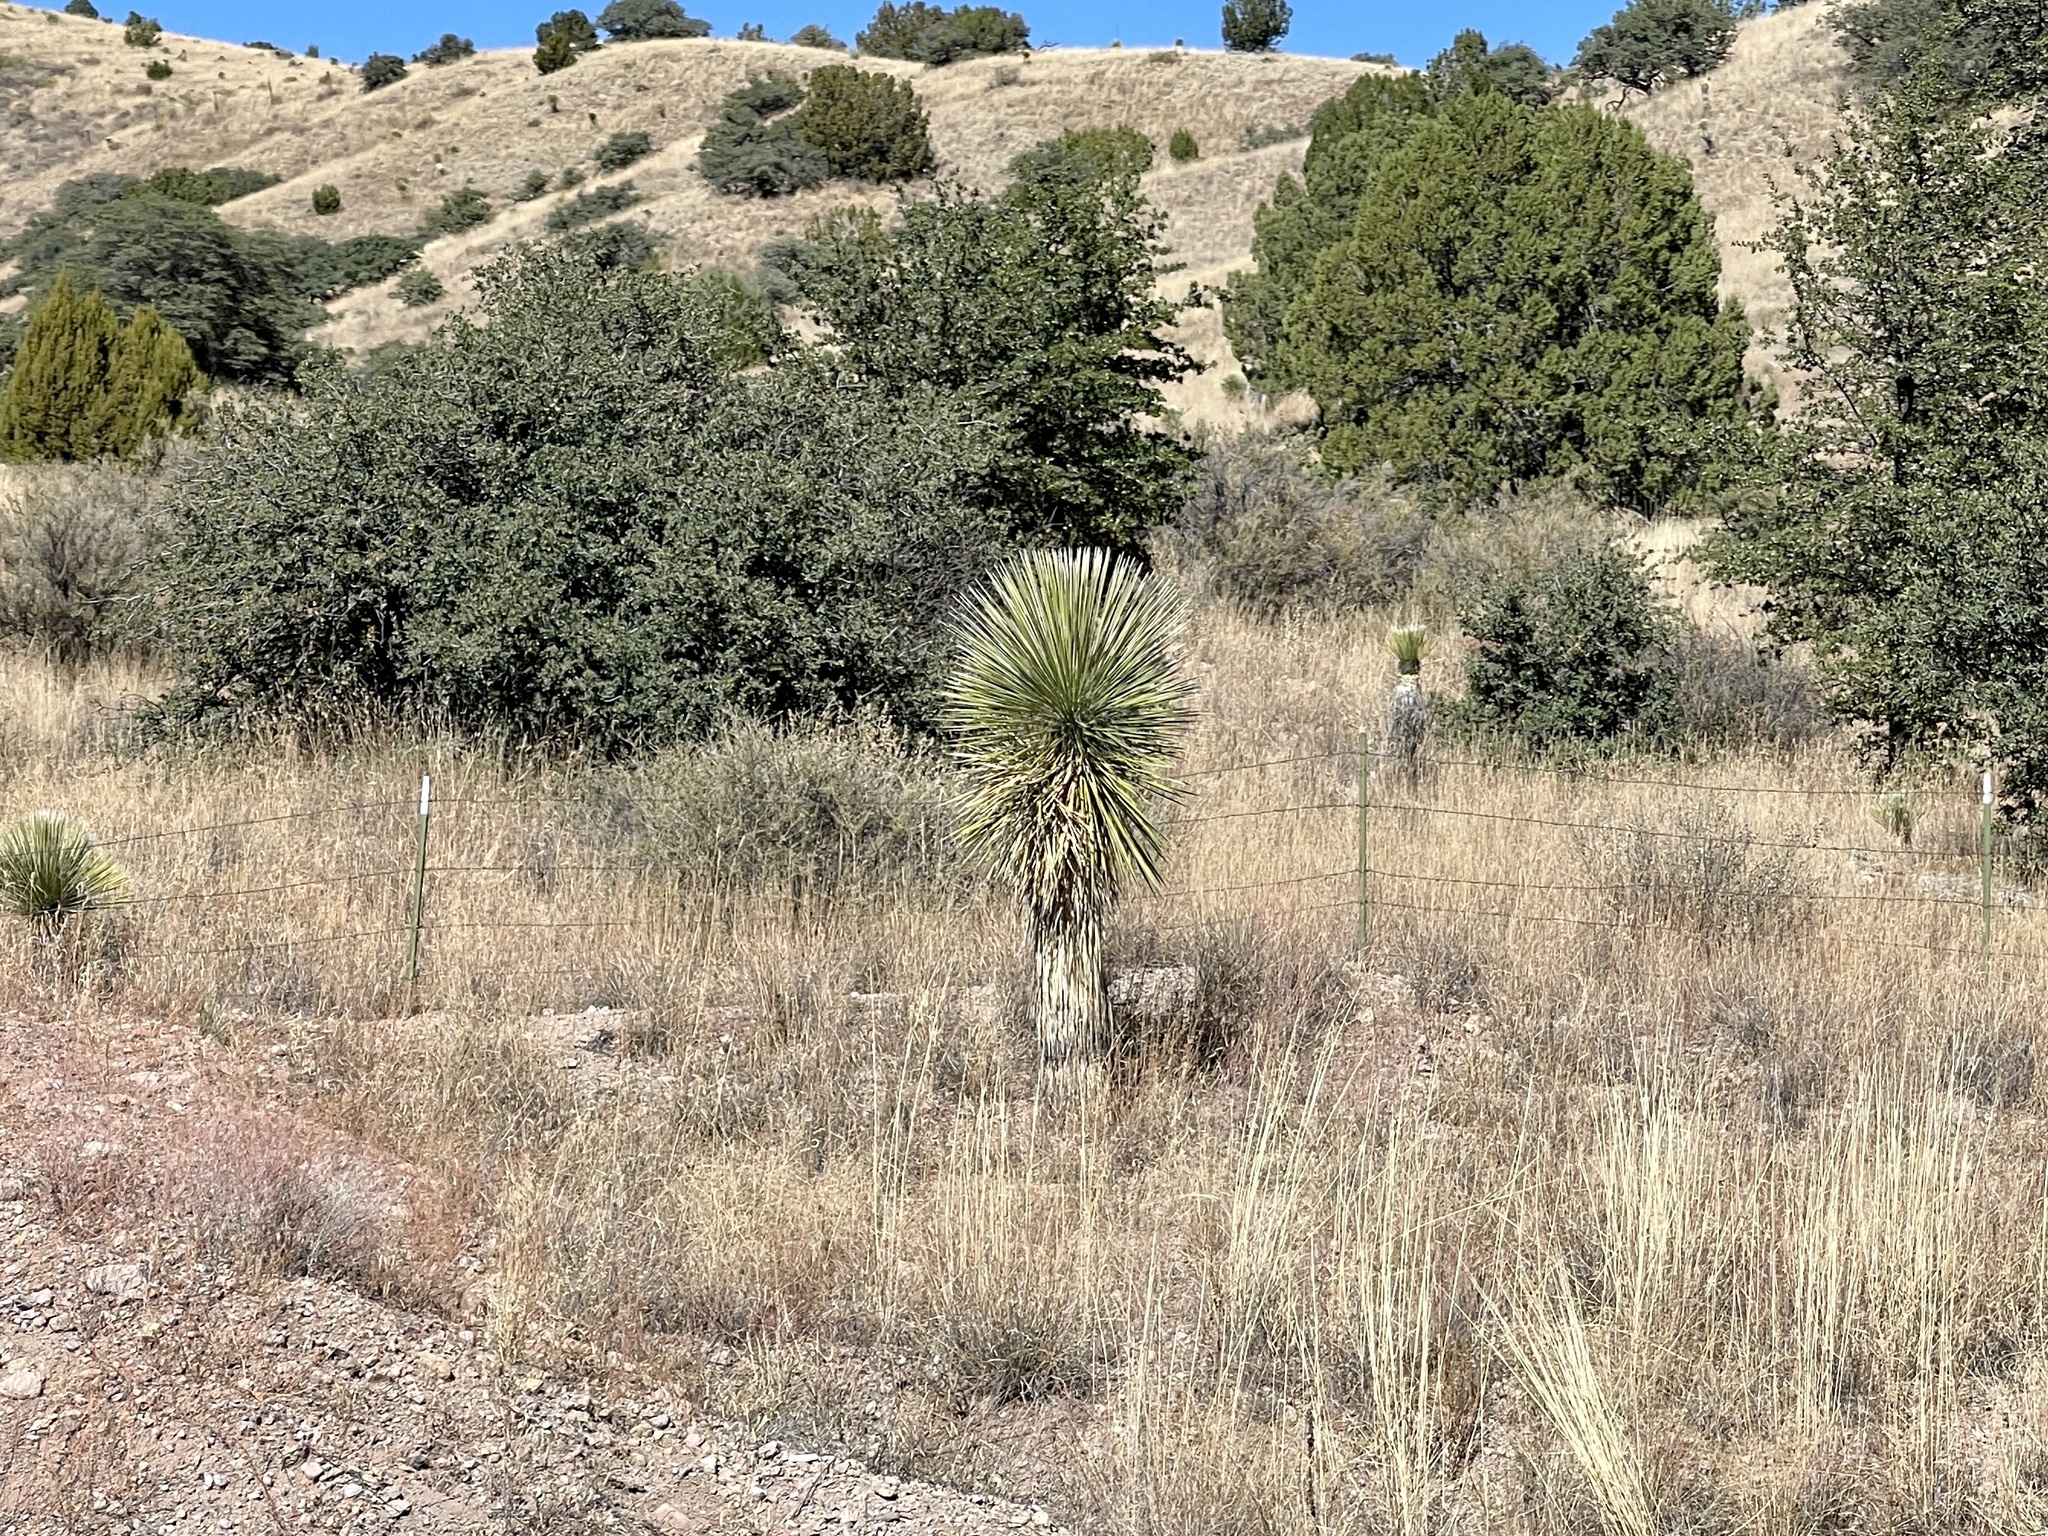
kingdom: Plantae
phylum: Tracheophyta
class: Liliopsida
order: Asparagales
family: Asparagaceae
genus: Yucca
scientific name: Yucca elata
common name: Palmella
